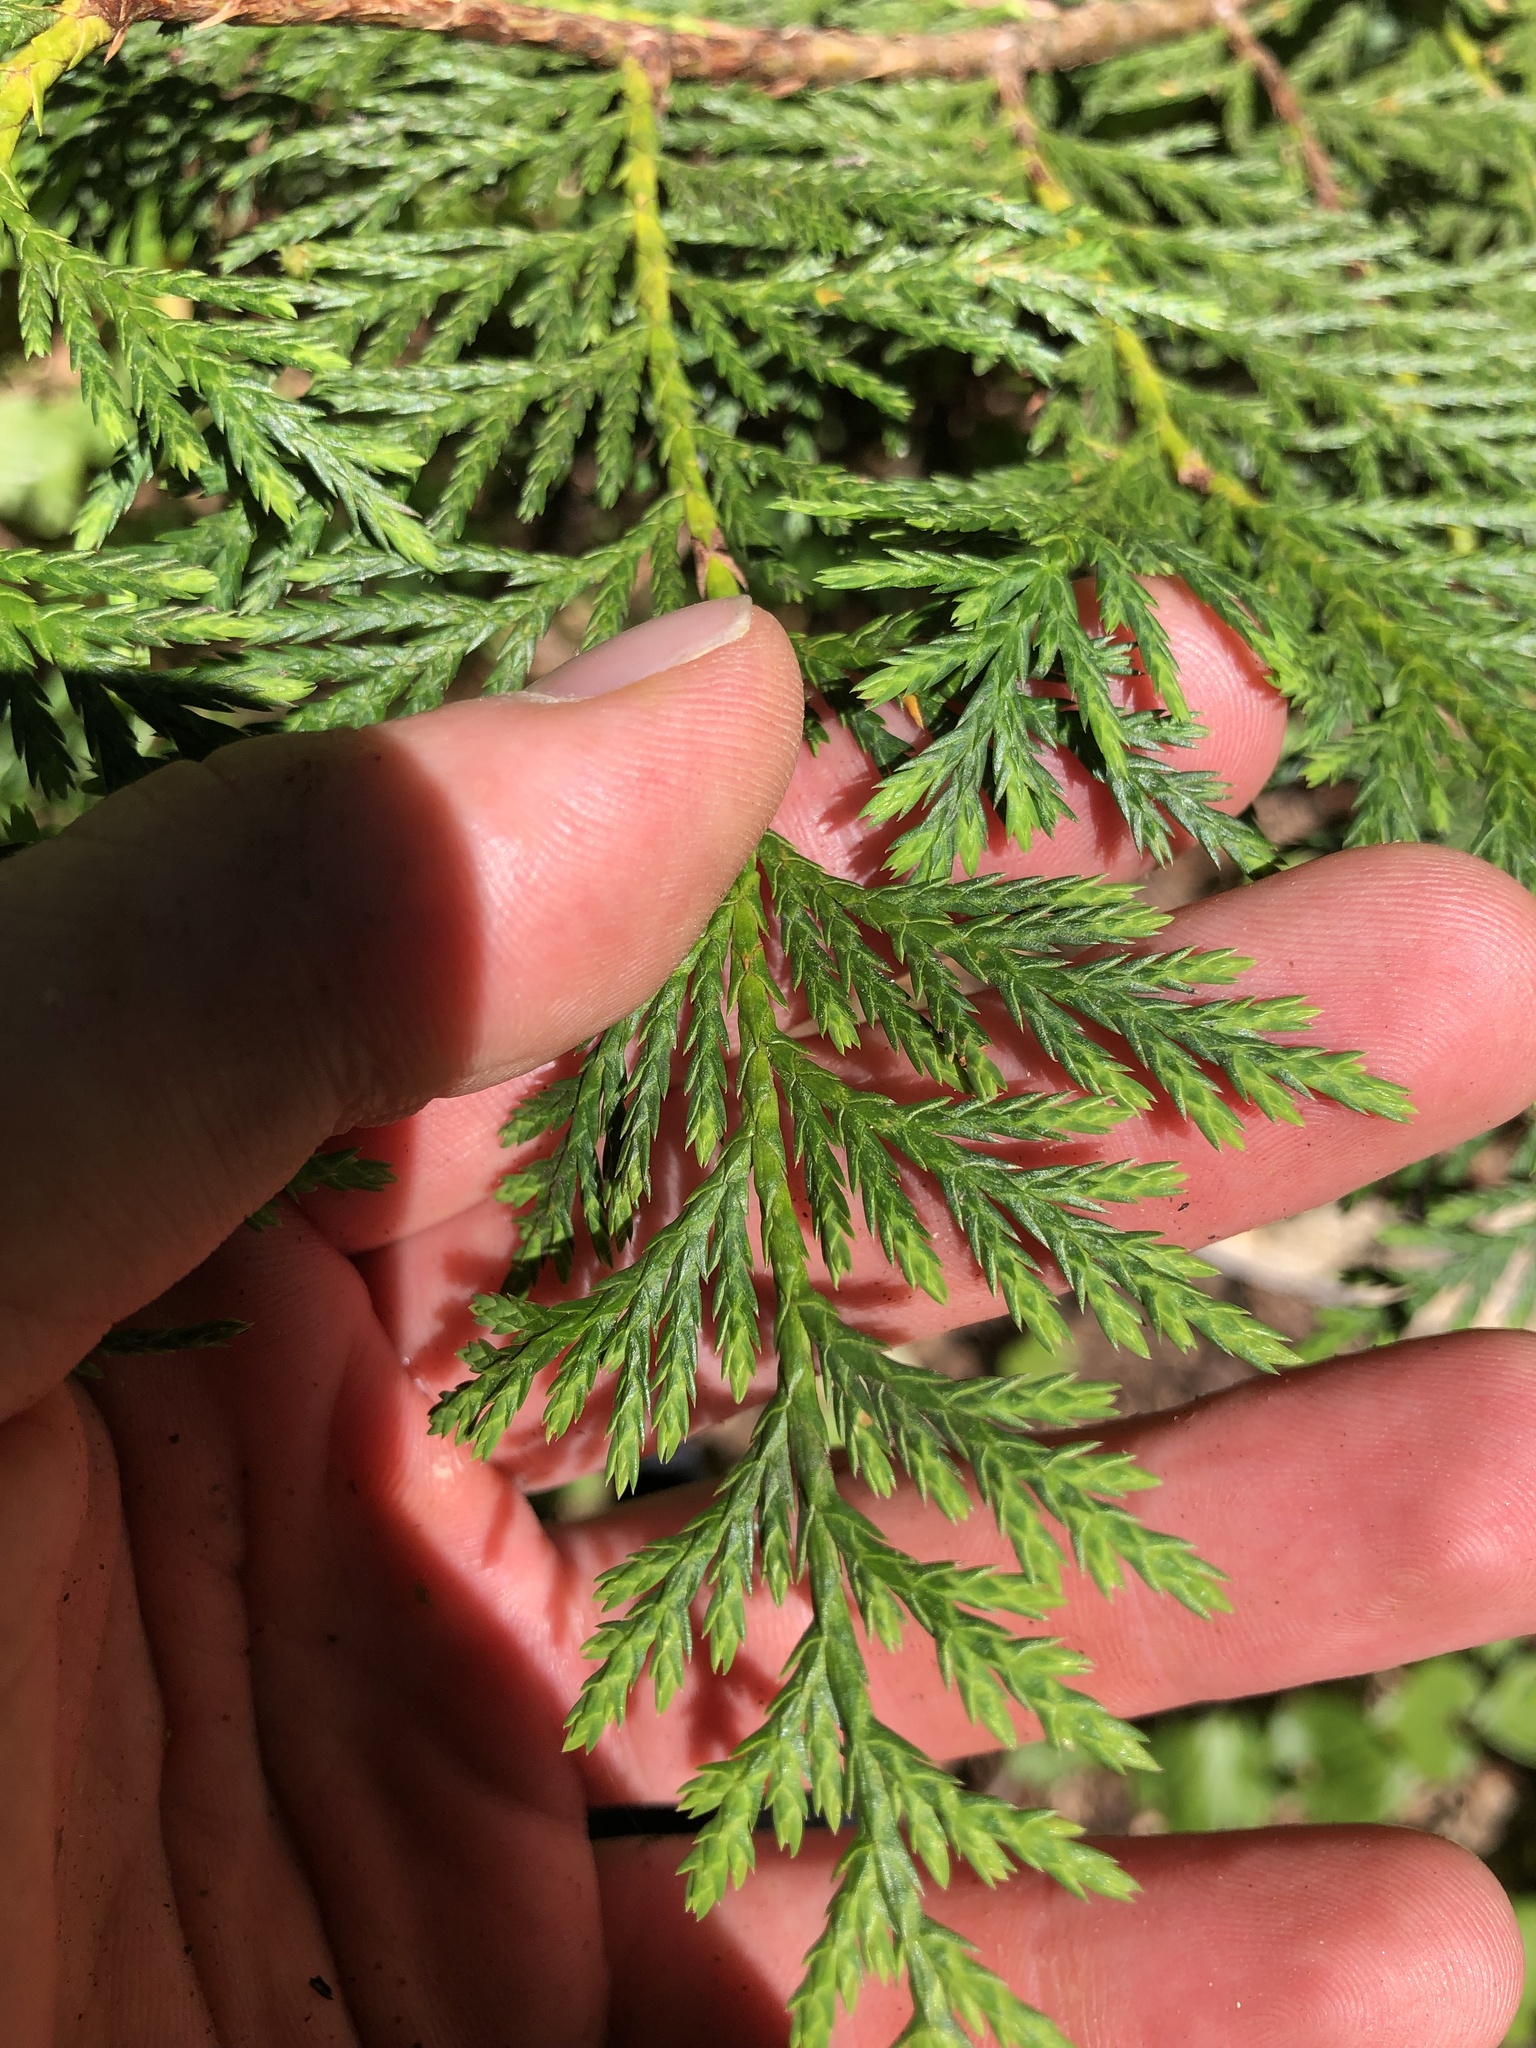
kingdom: Plantae
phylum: Tracheophyta
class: Pinopsida
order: Pinales
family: Cupressaceae
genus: Xanthocyparis
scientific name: Xanthocyparis nootkatensis
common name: Nootka cypress
